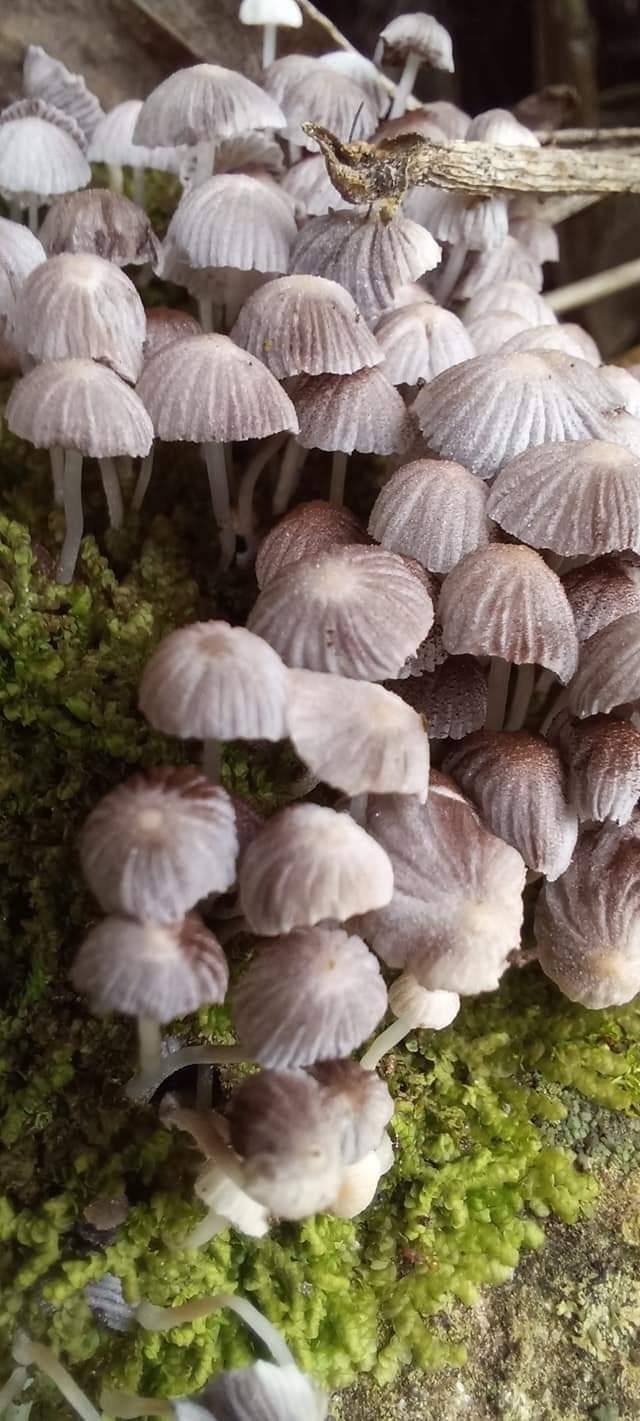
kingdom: Fungi
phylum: Basidiomycota
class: Agaricomycetes
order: Agaricales
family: Psathyrellaceae
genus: Coprinellus
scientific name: Coprinellus disseminatus
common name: Fairies' bonnets
